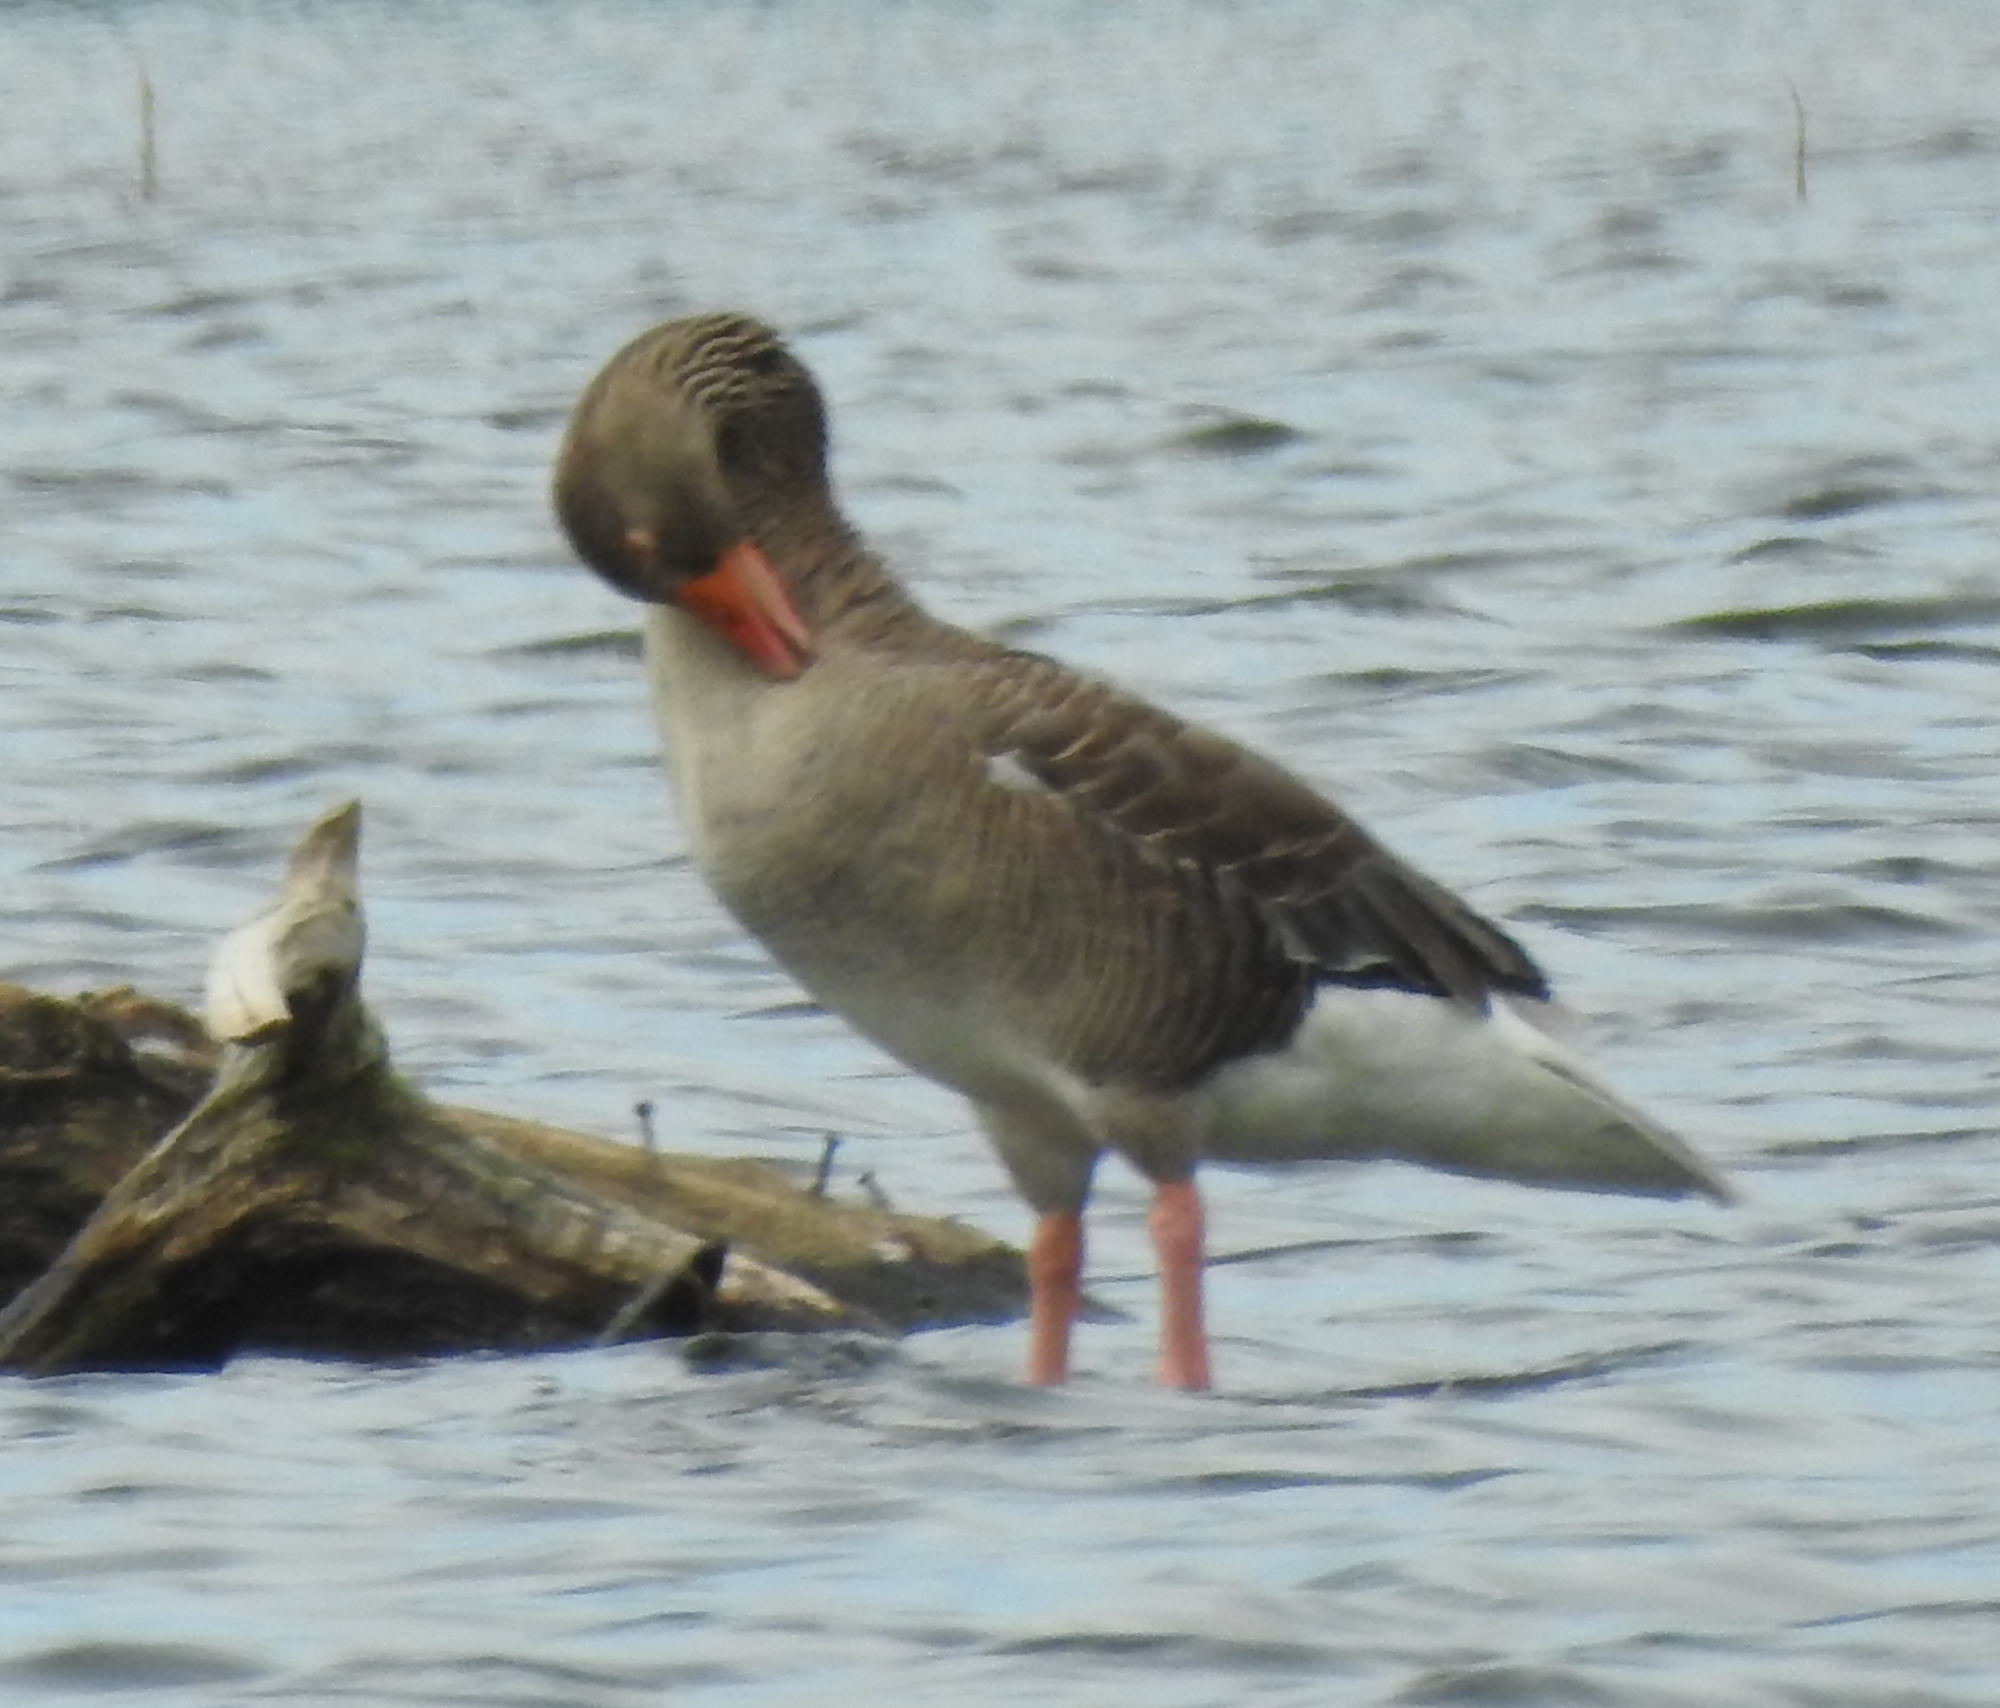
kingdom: Animalia
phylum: Chordata
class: Aves
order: Anseriformes
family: Anatidae
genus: Anser
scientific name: Anser anser
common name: Greylag goose
